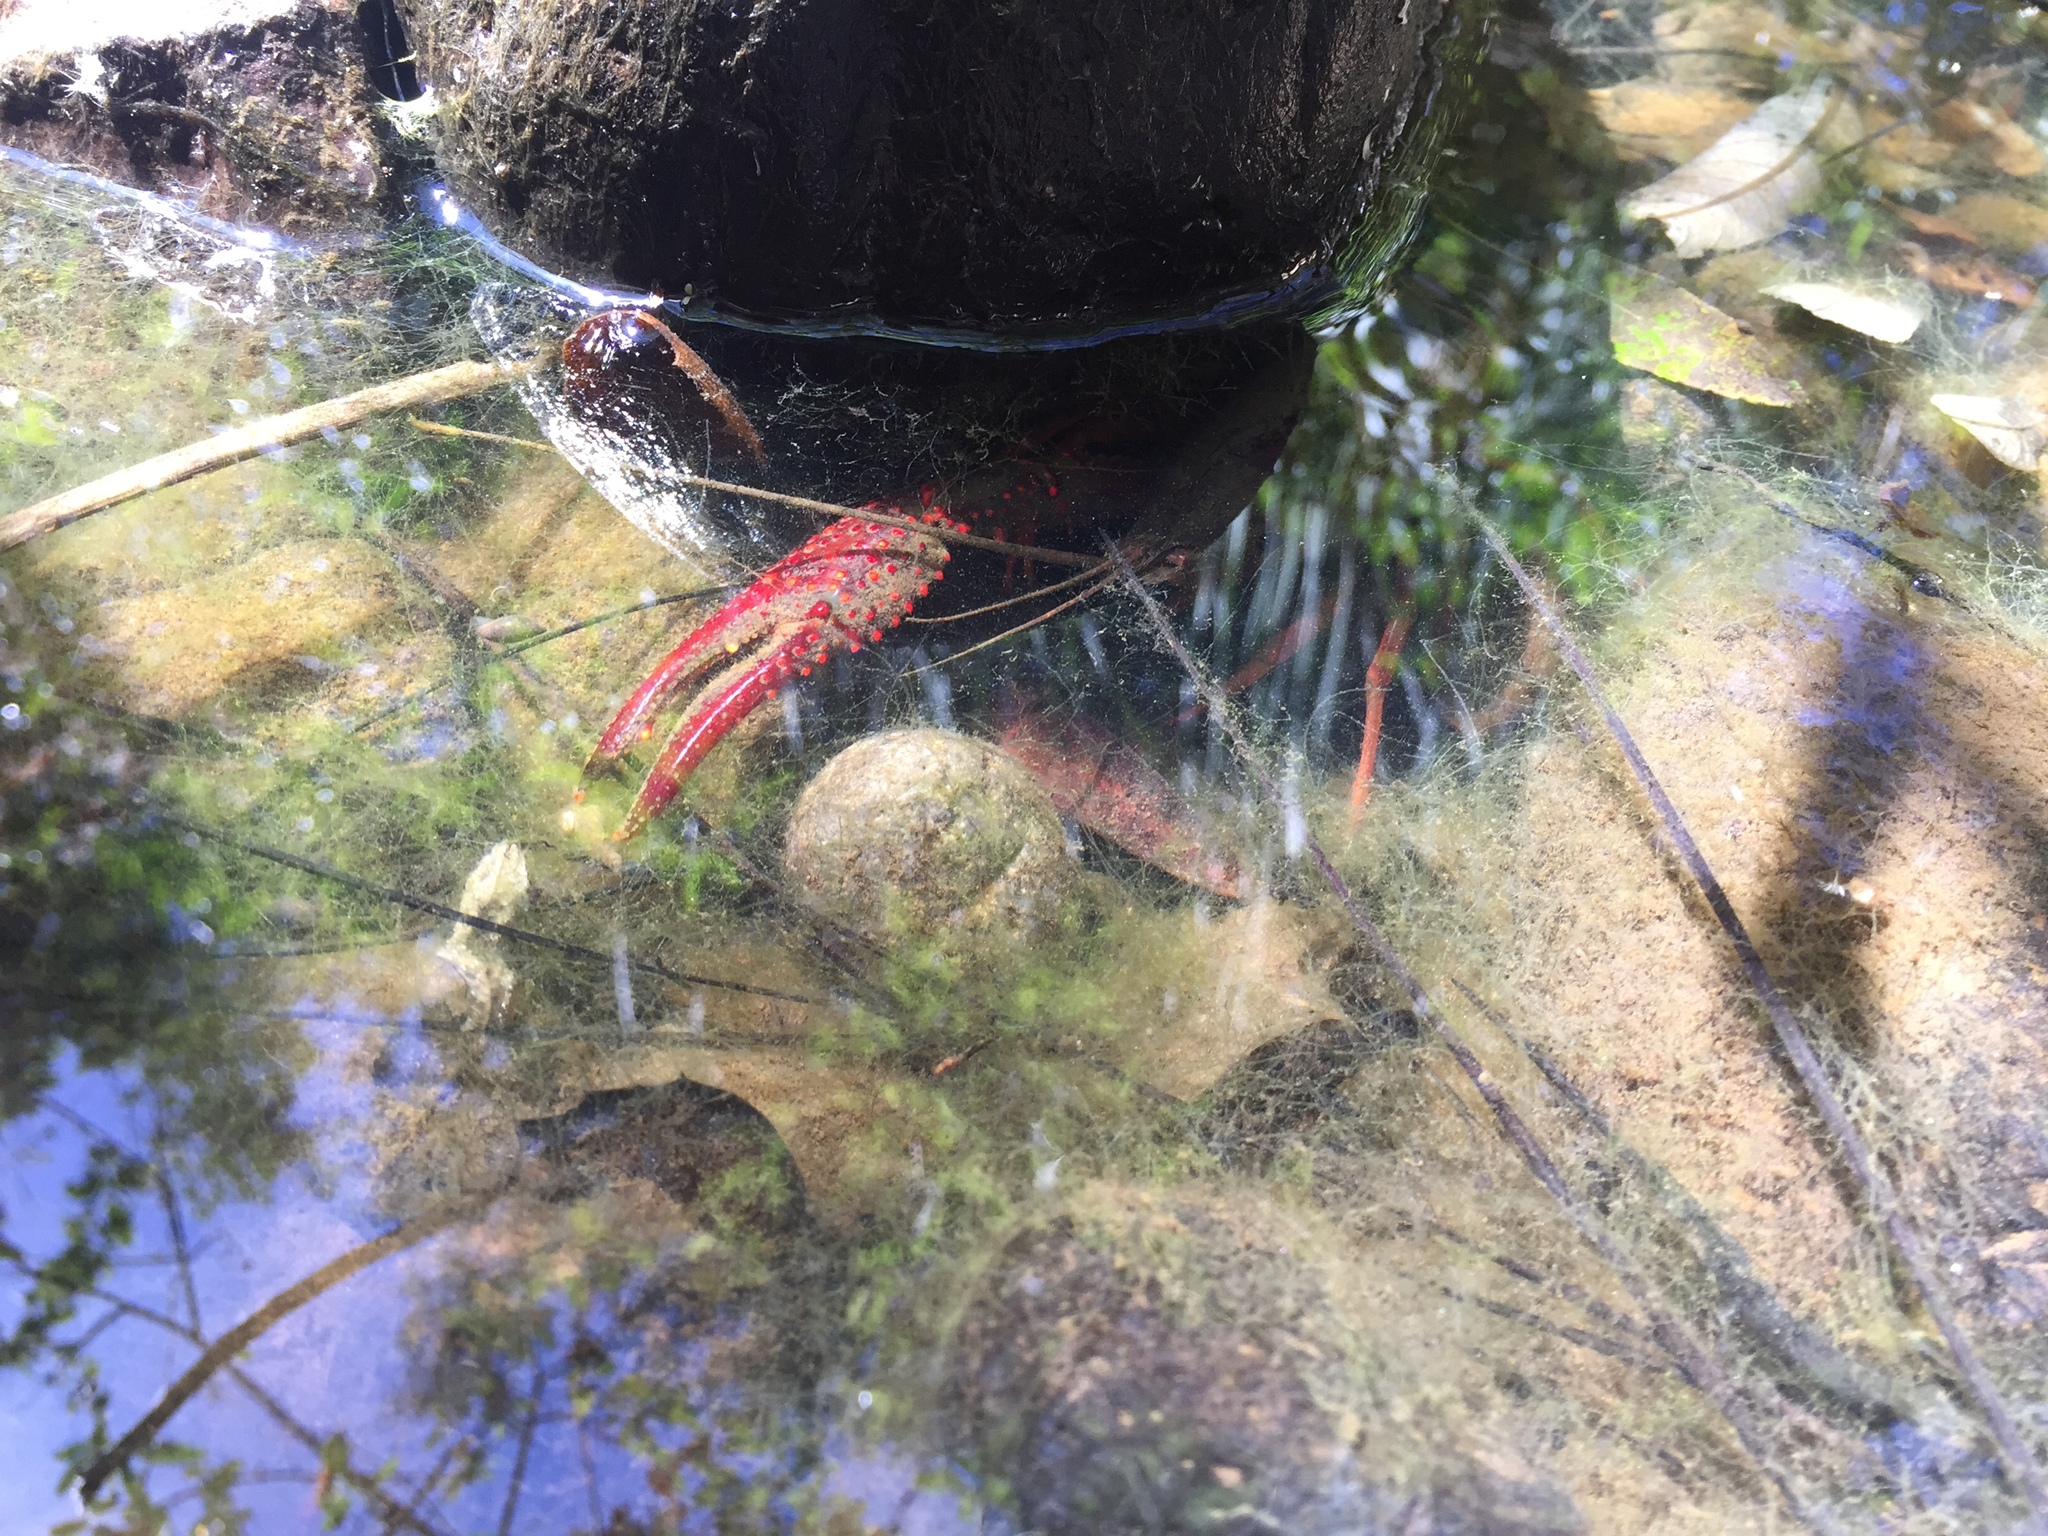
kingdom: Animalia
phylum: Arthropoda
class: Malacostraca
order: Decapoda
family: Cambaridae
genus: Procambarus
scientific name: Procambarus clarkii
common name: Red swamp crayfish
